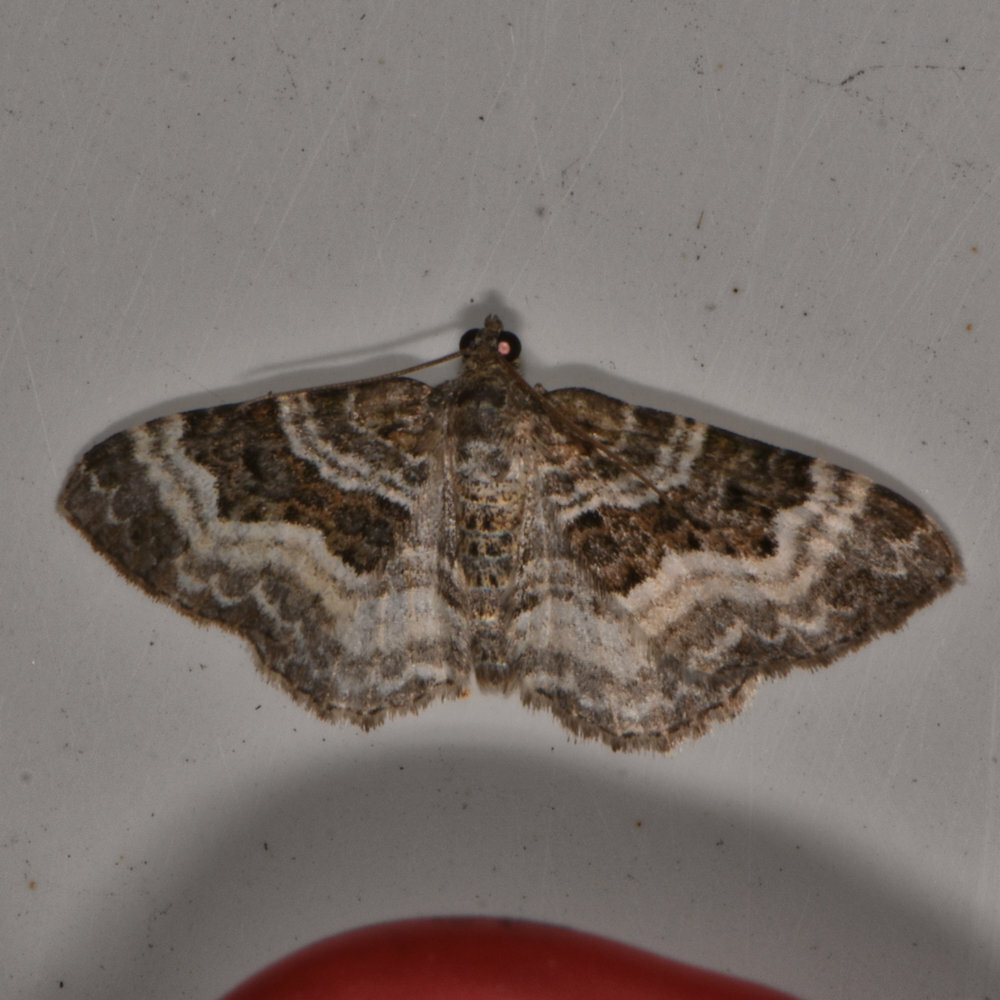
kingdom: Animalia
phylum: Arthropoda
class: Insecta
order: Lepidoptera
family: Geometridae
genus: Epirrhoe
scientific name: Epirrhoe alternata
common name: Common carpet
